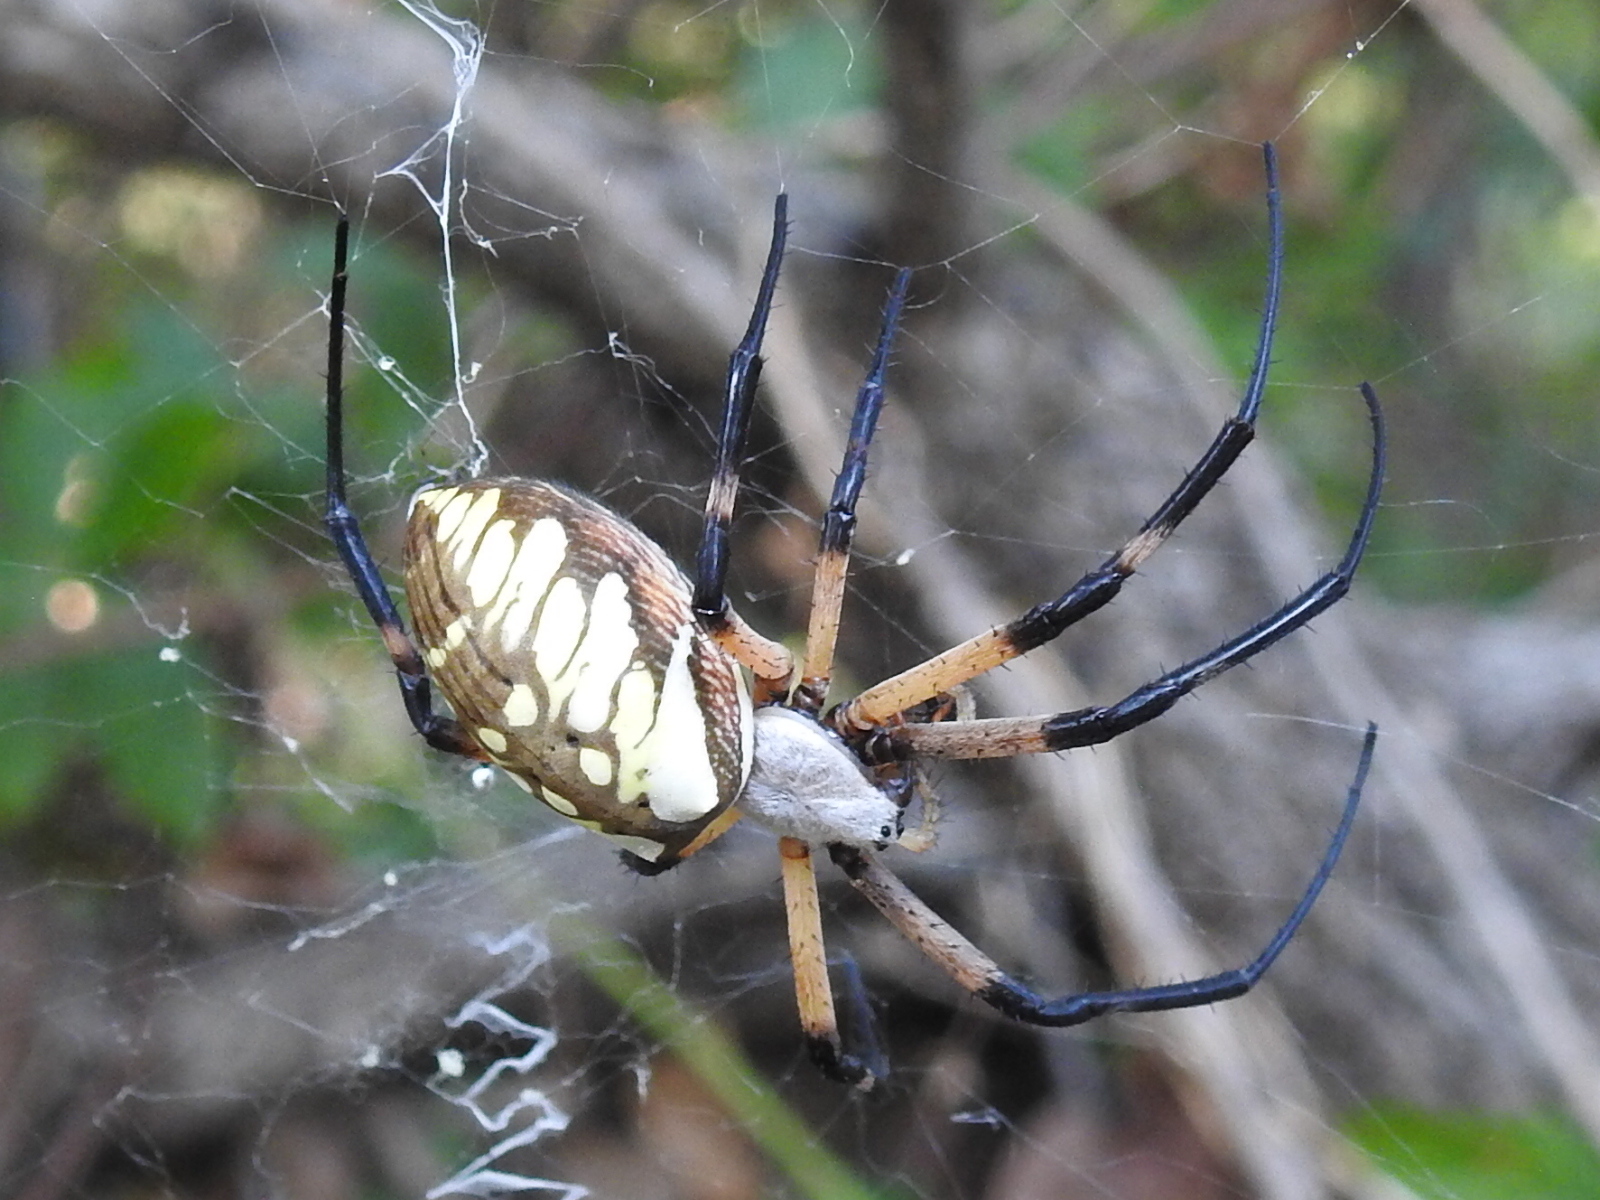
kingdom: Animalia
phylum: Arthropoda
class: Arachnida
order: Araneae
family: Araneidae
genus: Argiope
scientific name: Argiope aurantia
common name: Orb weavers
